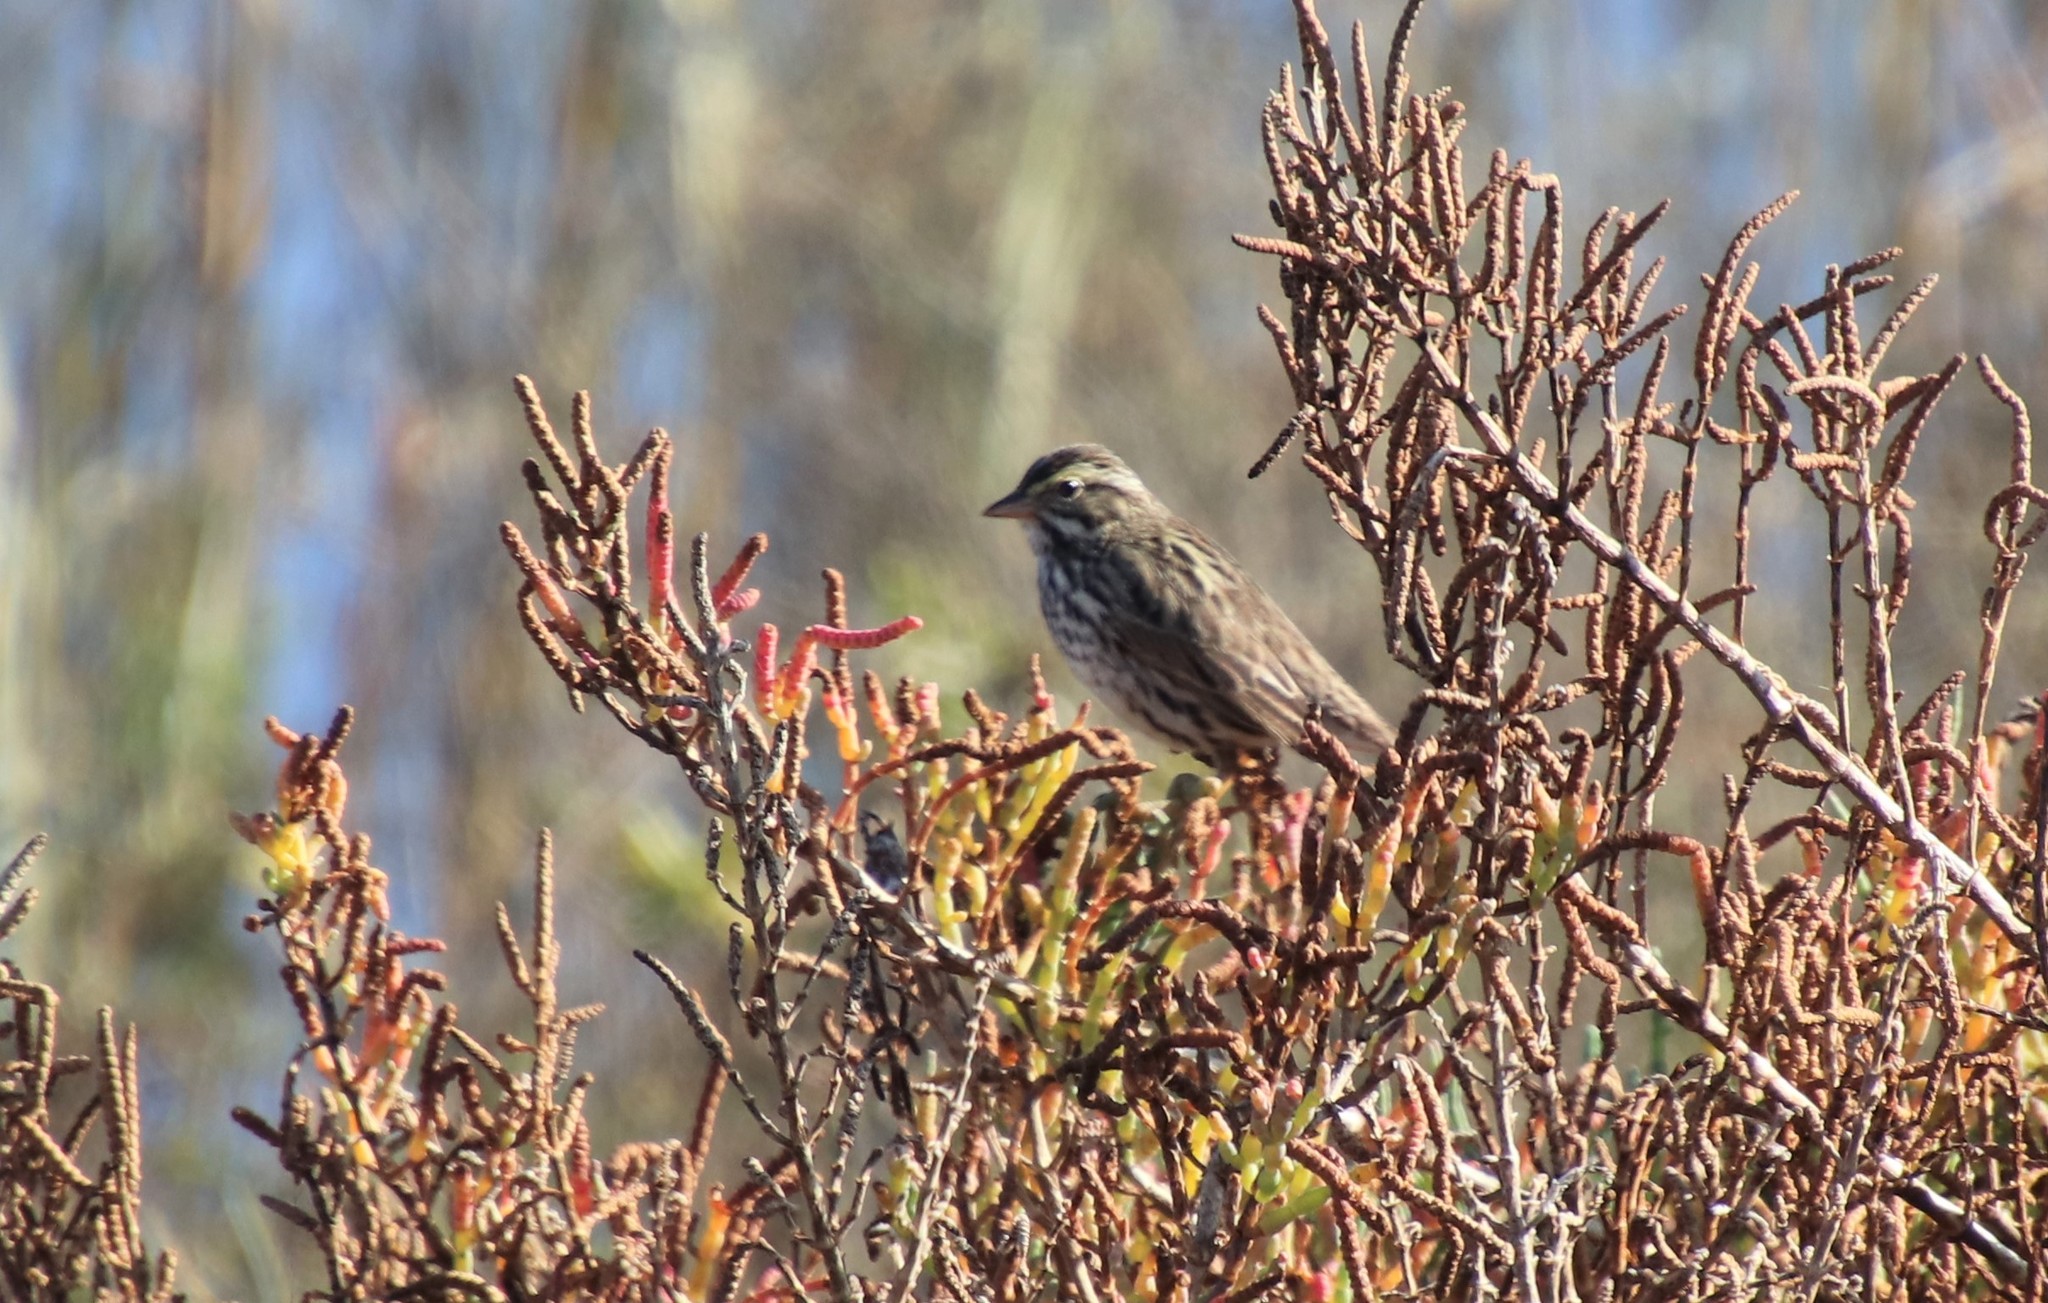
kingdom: Animalia
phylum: Chordata
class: Aves
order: Passeriformes
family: Passerellidae
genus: Passerculus
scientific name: Passerculus sandwichensis
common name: Savannah sparrow
